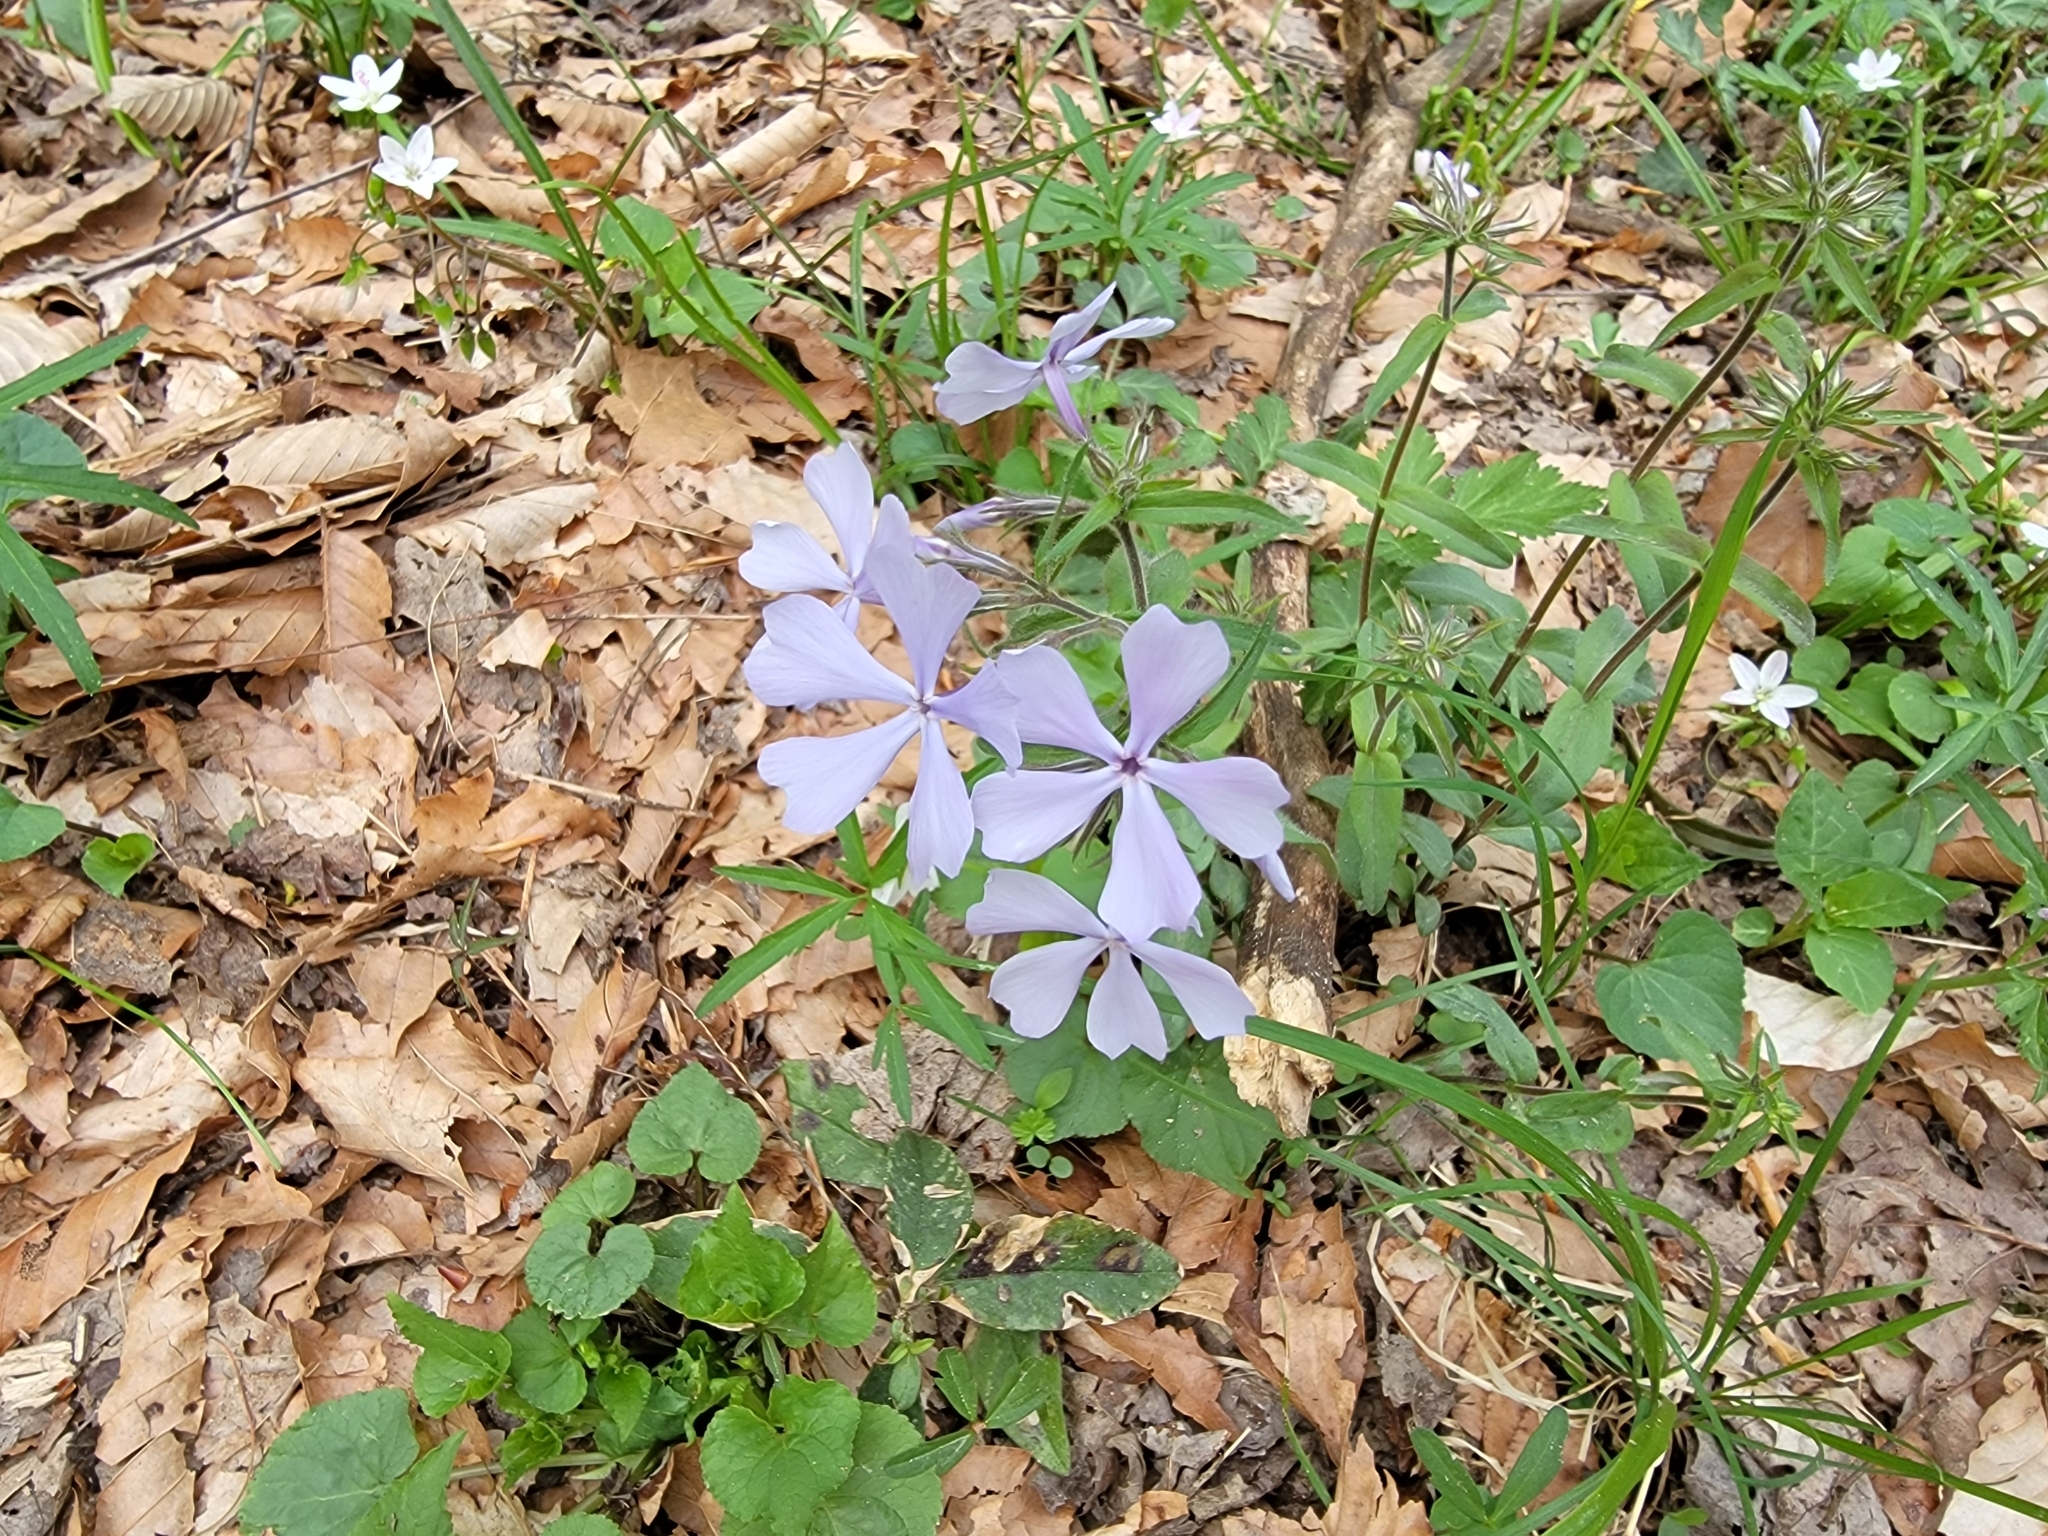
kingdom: Plantae
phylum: Tracheophyta
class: Magnoliopsida
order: Ericales
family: Polemoniaceae
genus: Phlox
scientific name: Phlox divaricata
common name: Blue phlox
